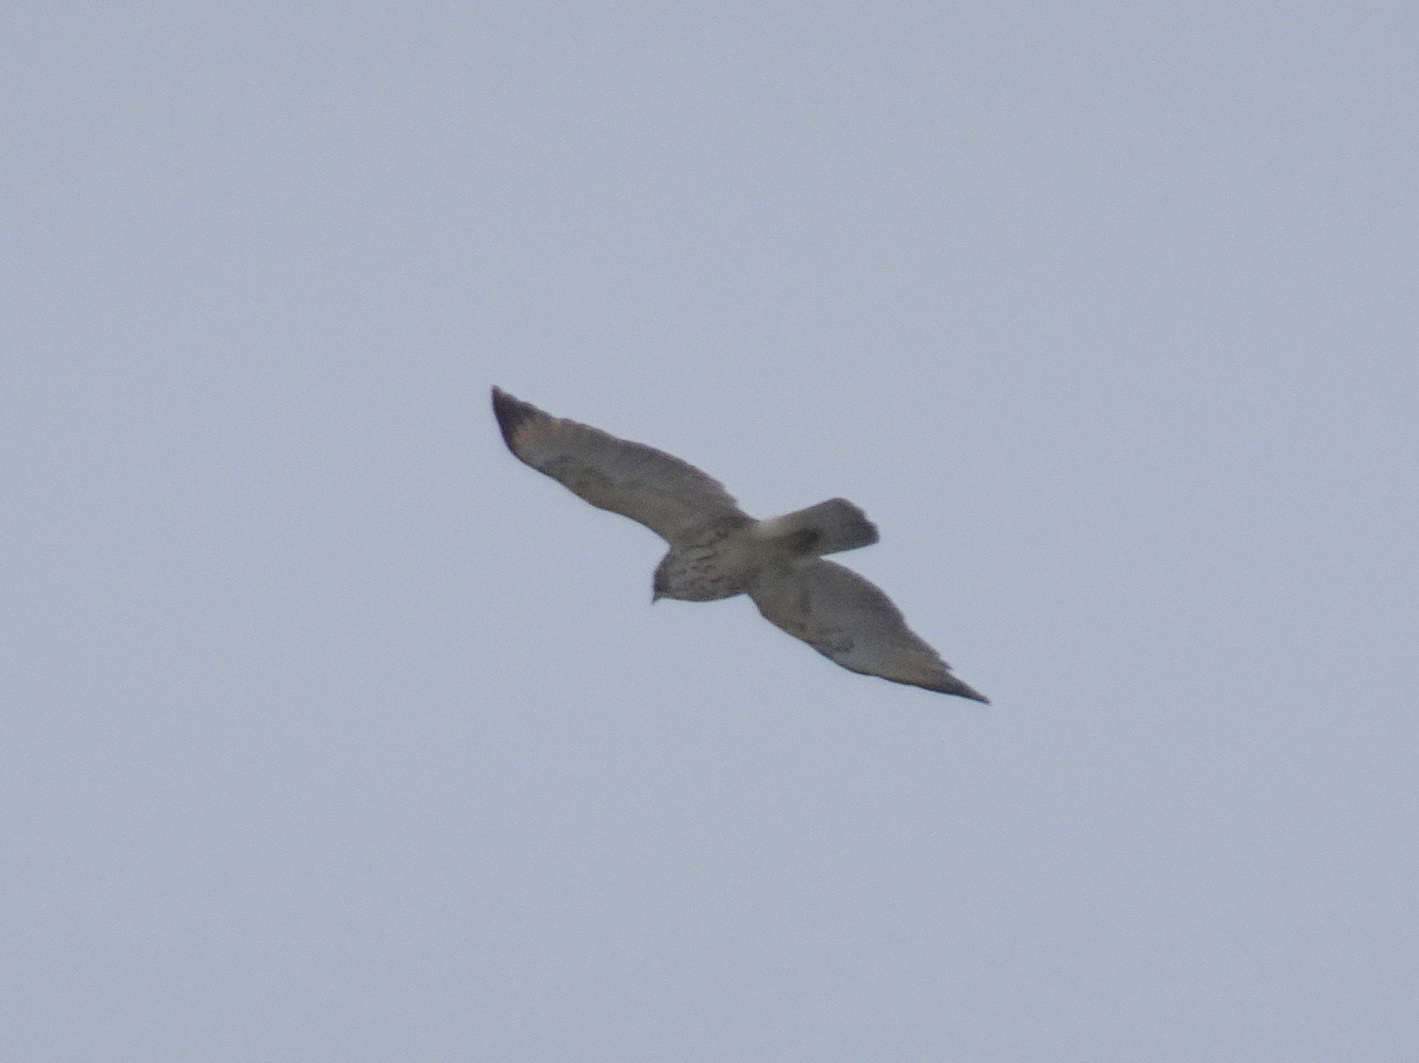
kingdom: Animalia
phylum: Chordata
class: Aves
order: Accipitriformes
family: Accipitridae
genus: Buteo
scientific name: Buteo lineatus
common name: Red-shouldered hawk
